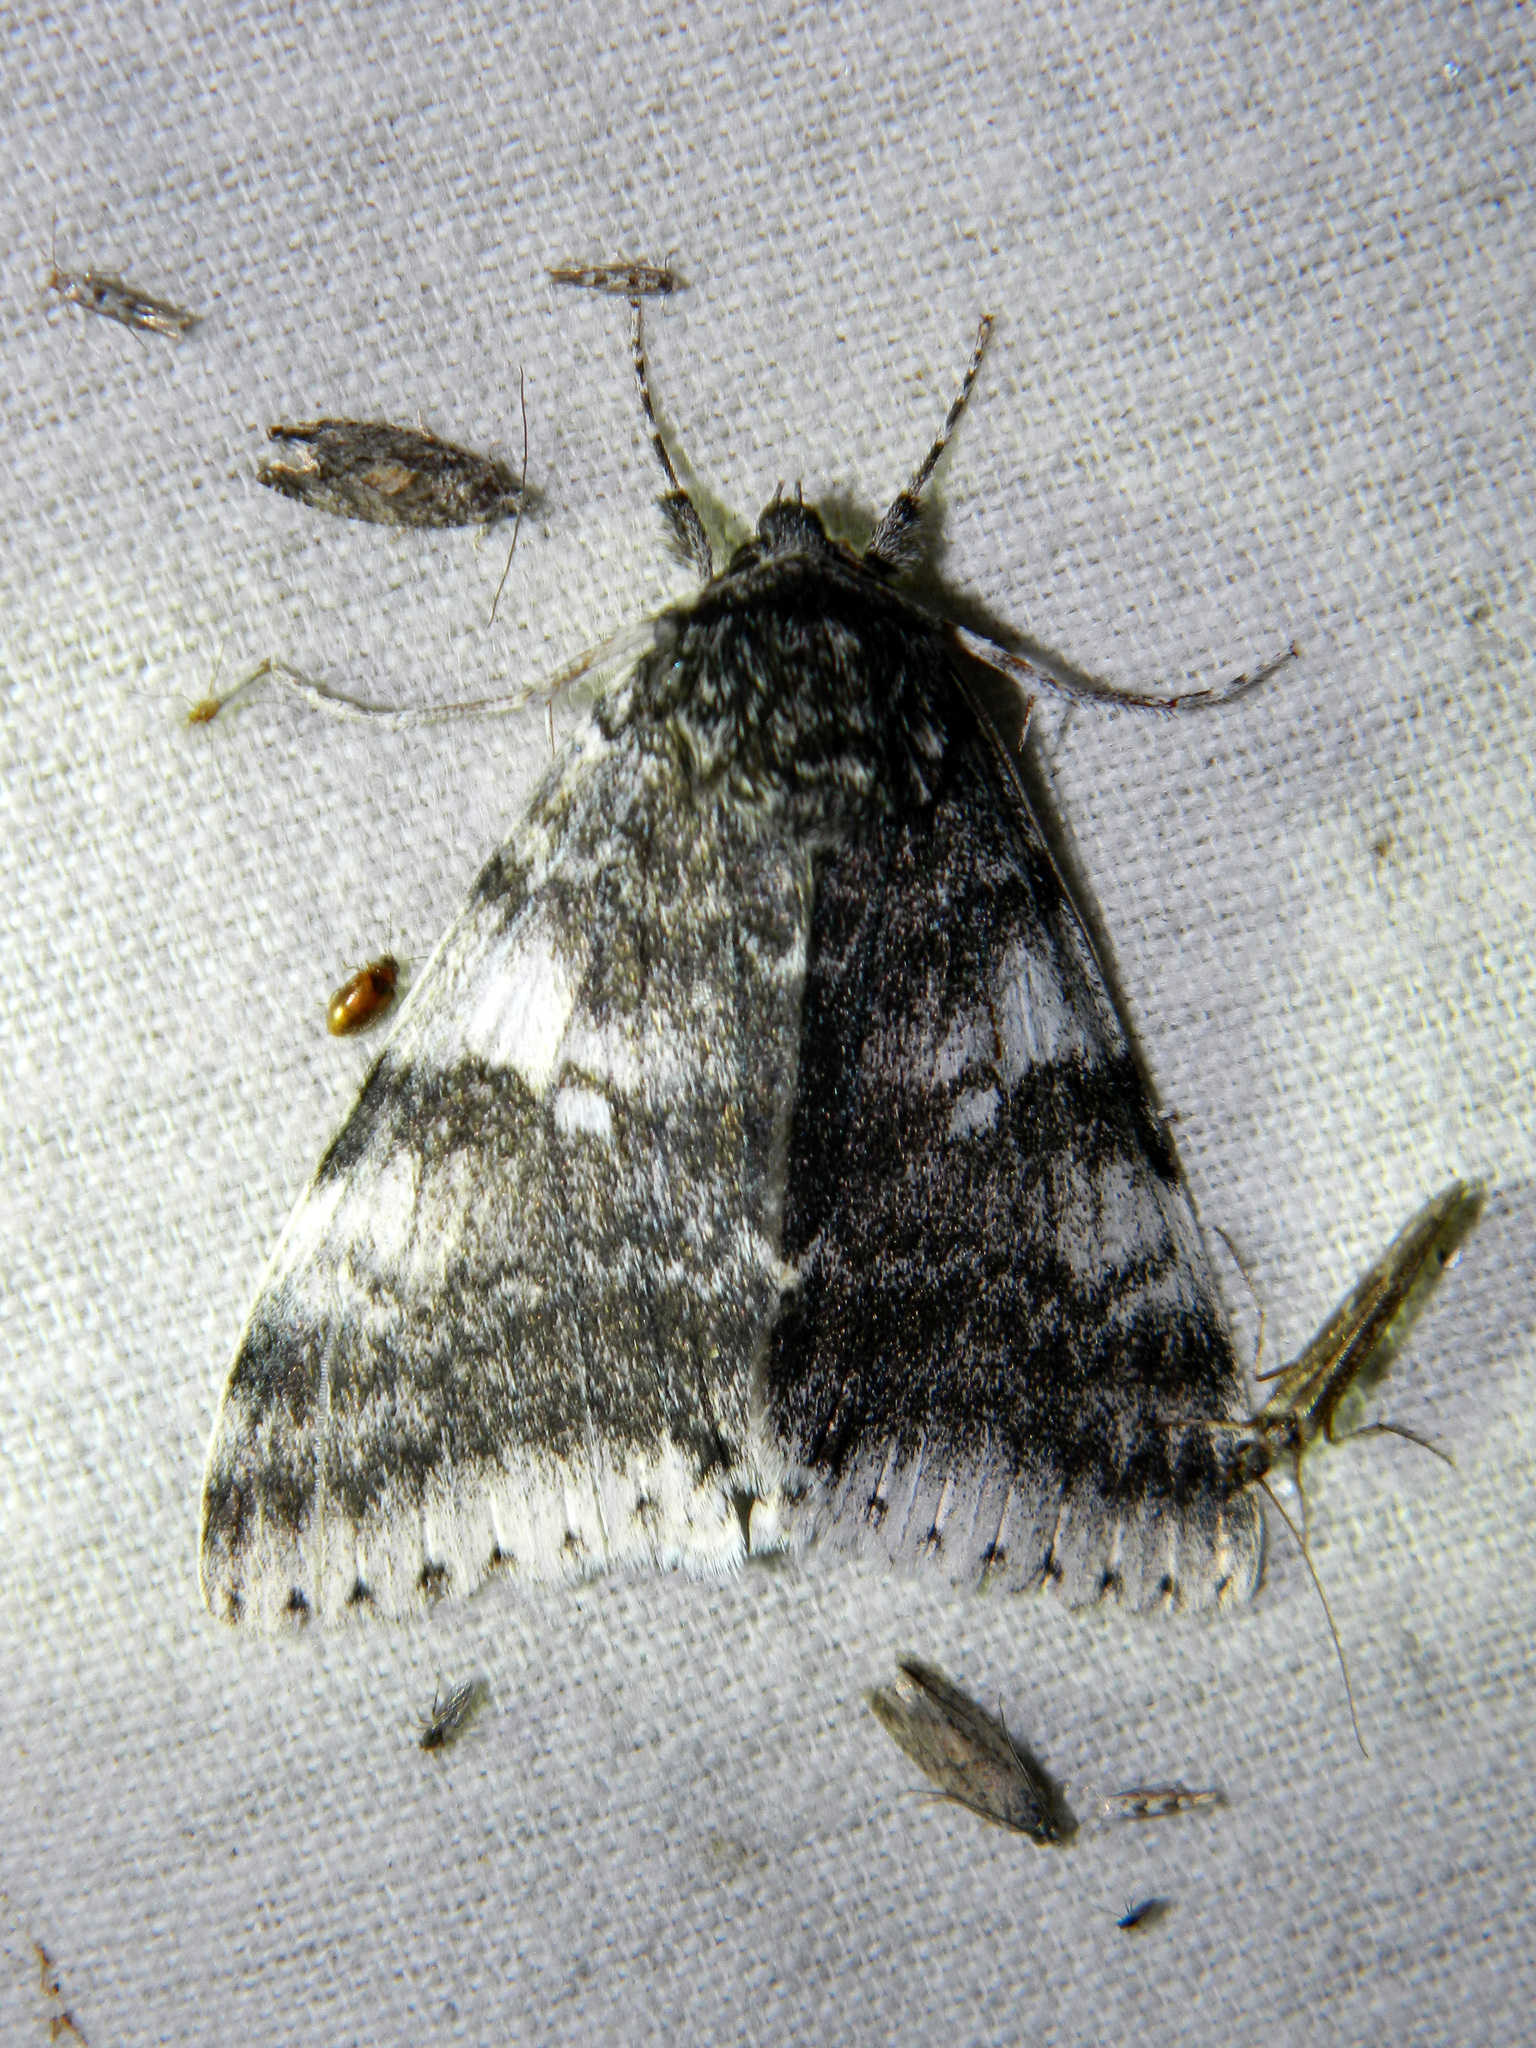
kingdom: Animalia
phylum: Arthropoda
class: Insecta
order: Lepidoptera
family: Erebidae
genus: Catocala
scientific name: Catocala relicta
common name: White underwing
